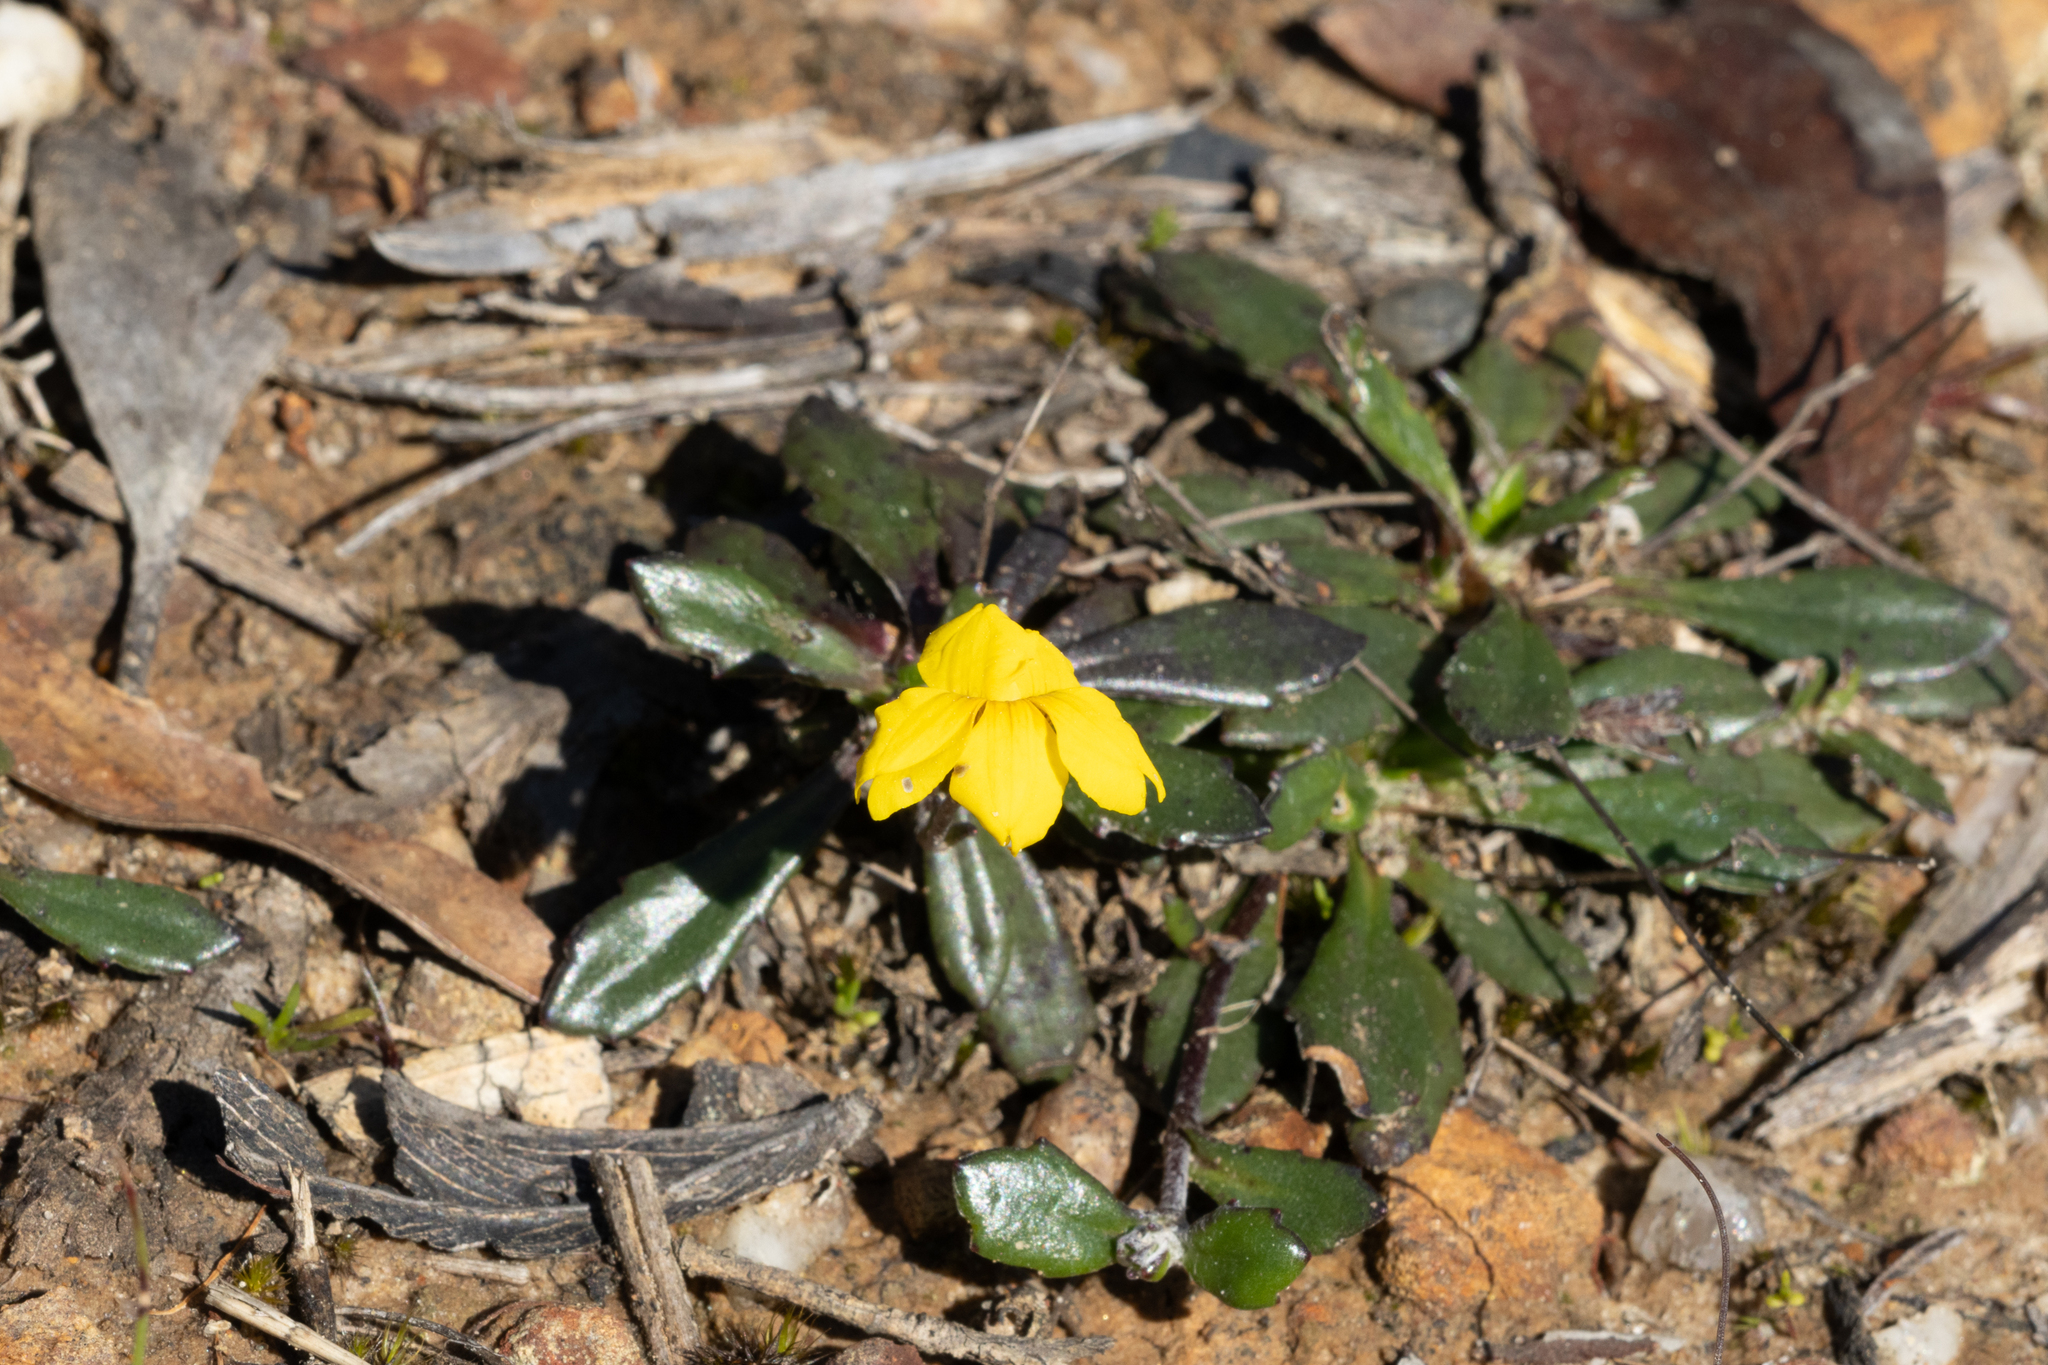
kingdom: Plantae
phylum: Tracheophyta
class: Magnoliopsida
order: Asterales
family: Goodeniaceae
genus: Goodenia
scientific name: Goodenia blackiana
